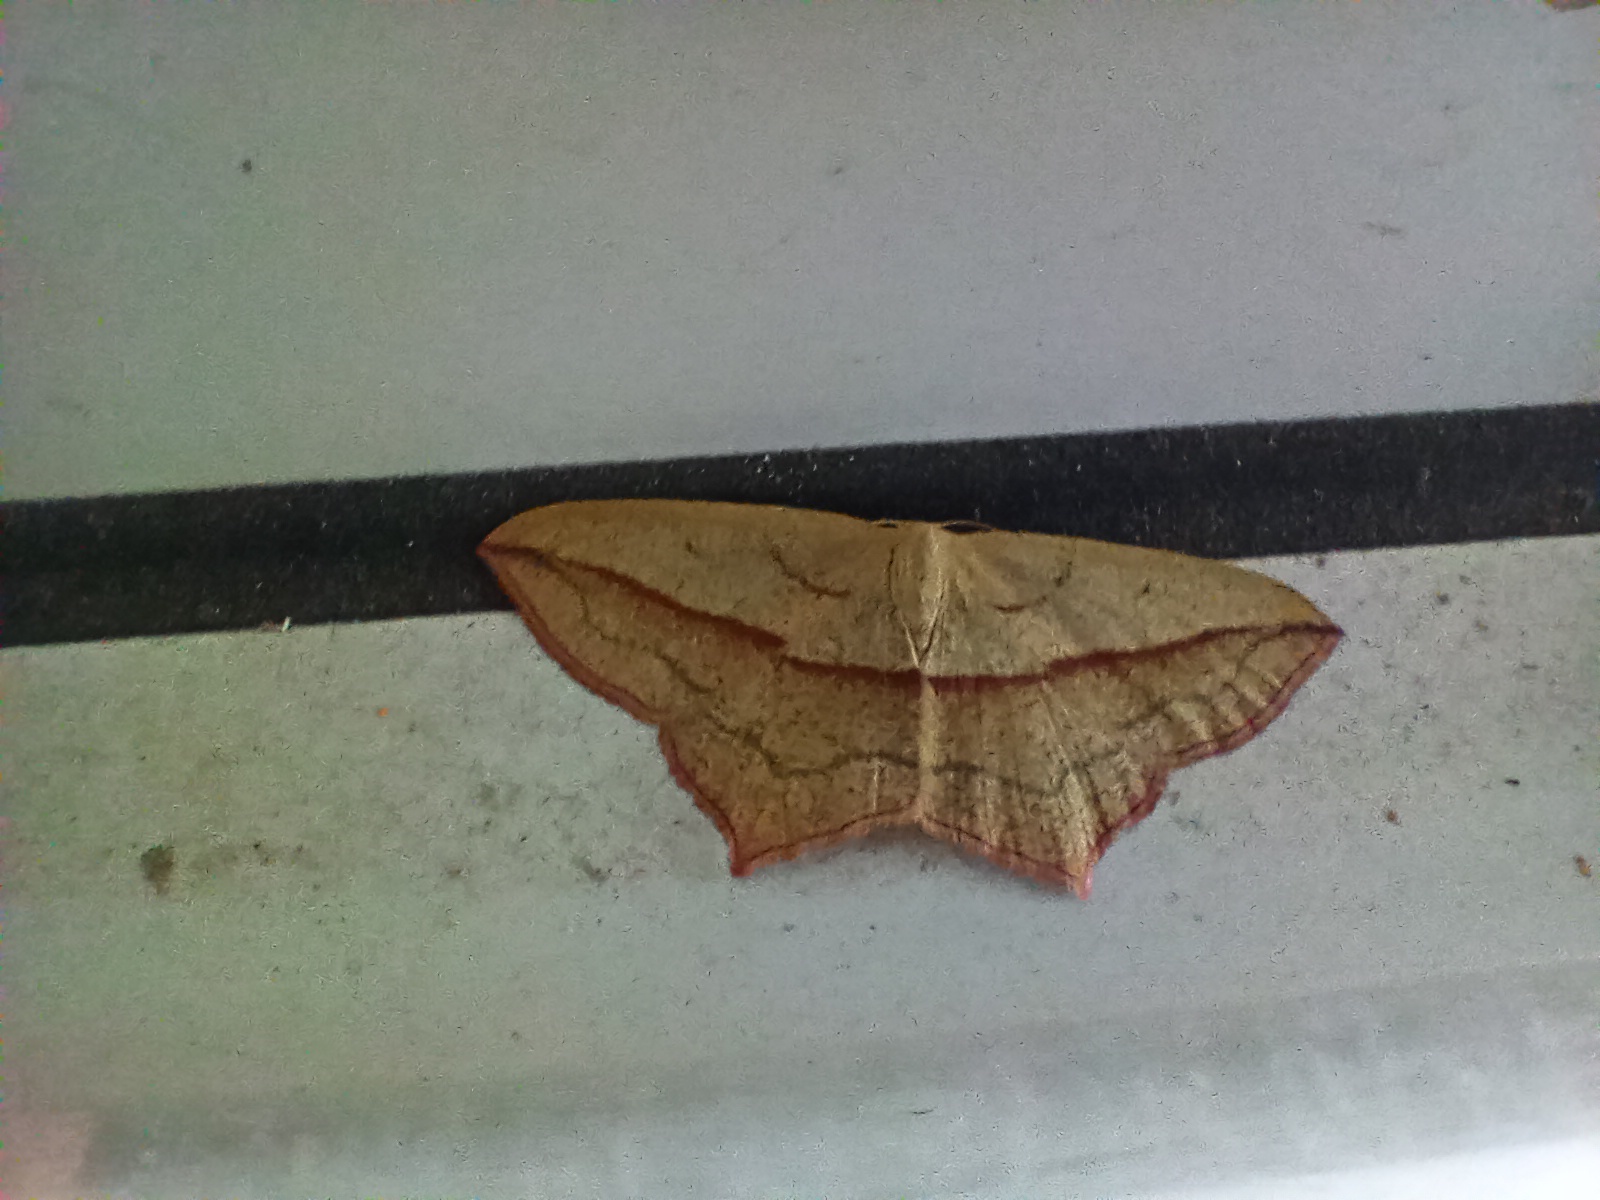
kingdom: Animalia
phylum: Arthropoda
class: Insecta
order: Lepidoptera
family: Geometridae
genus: Timandra
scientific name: Timandra comae
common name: Blood-vein
